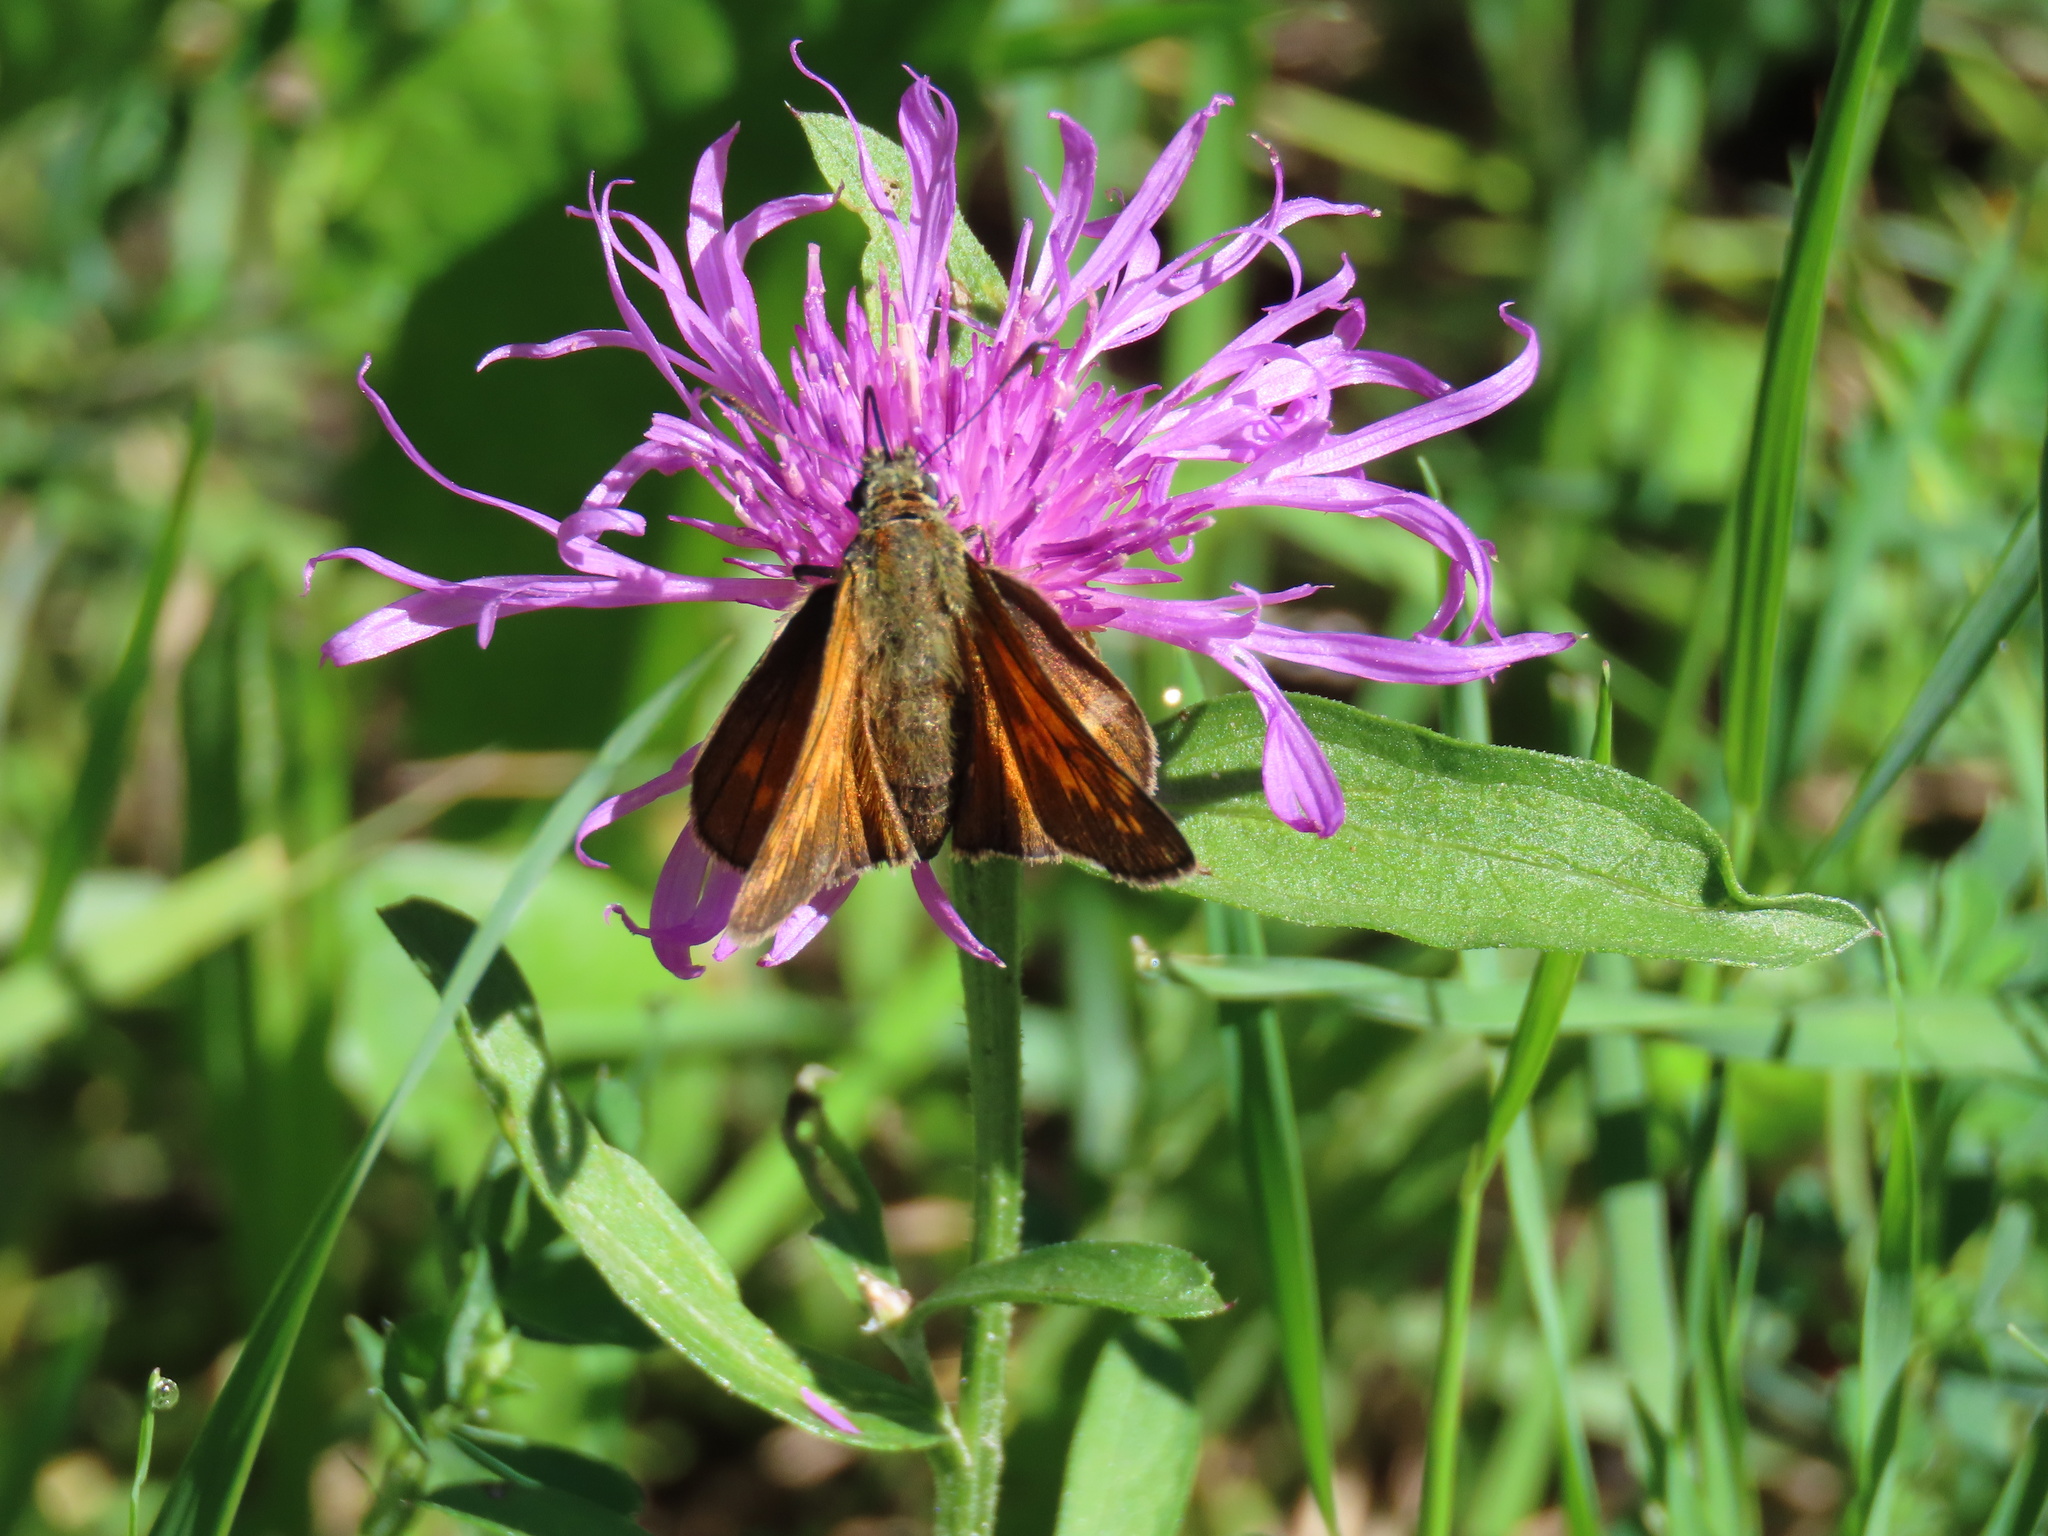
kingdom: Animalia
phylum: Arthropoda
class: Insecta
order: Lepidoptera
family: Hesperiidae
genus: Ochlodes
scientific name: Ochlodes venata
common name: Large skipper
